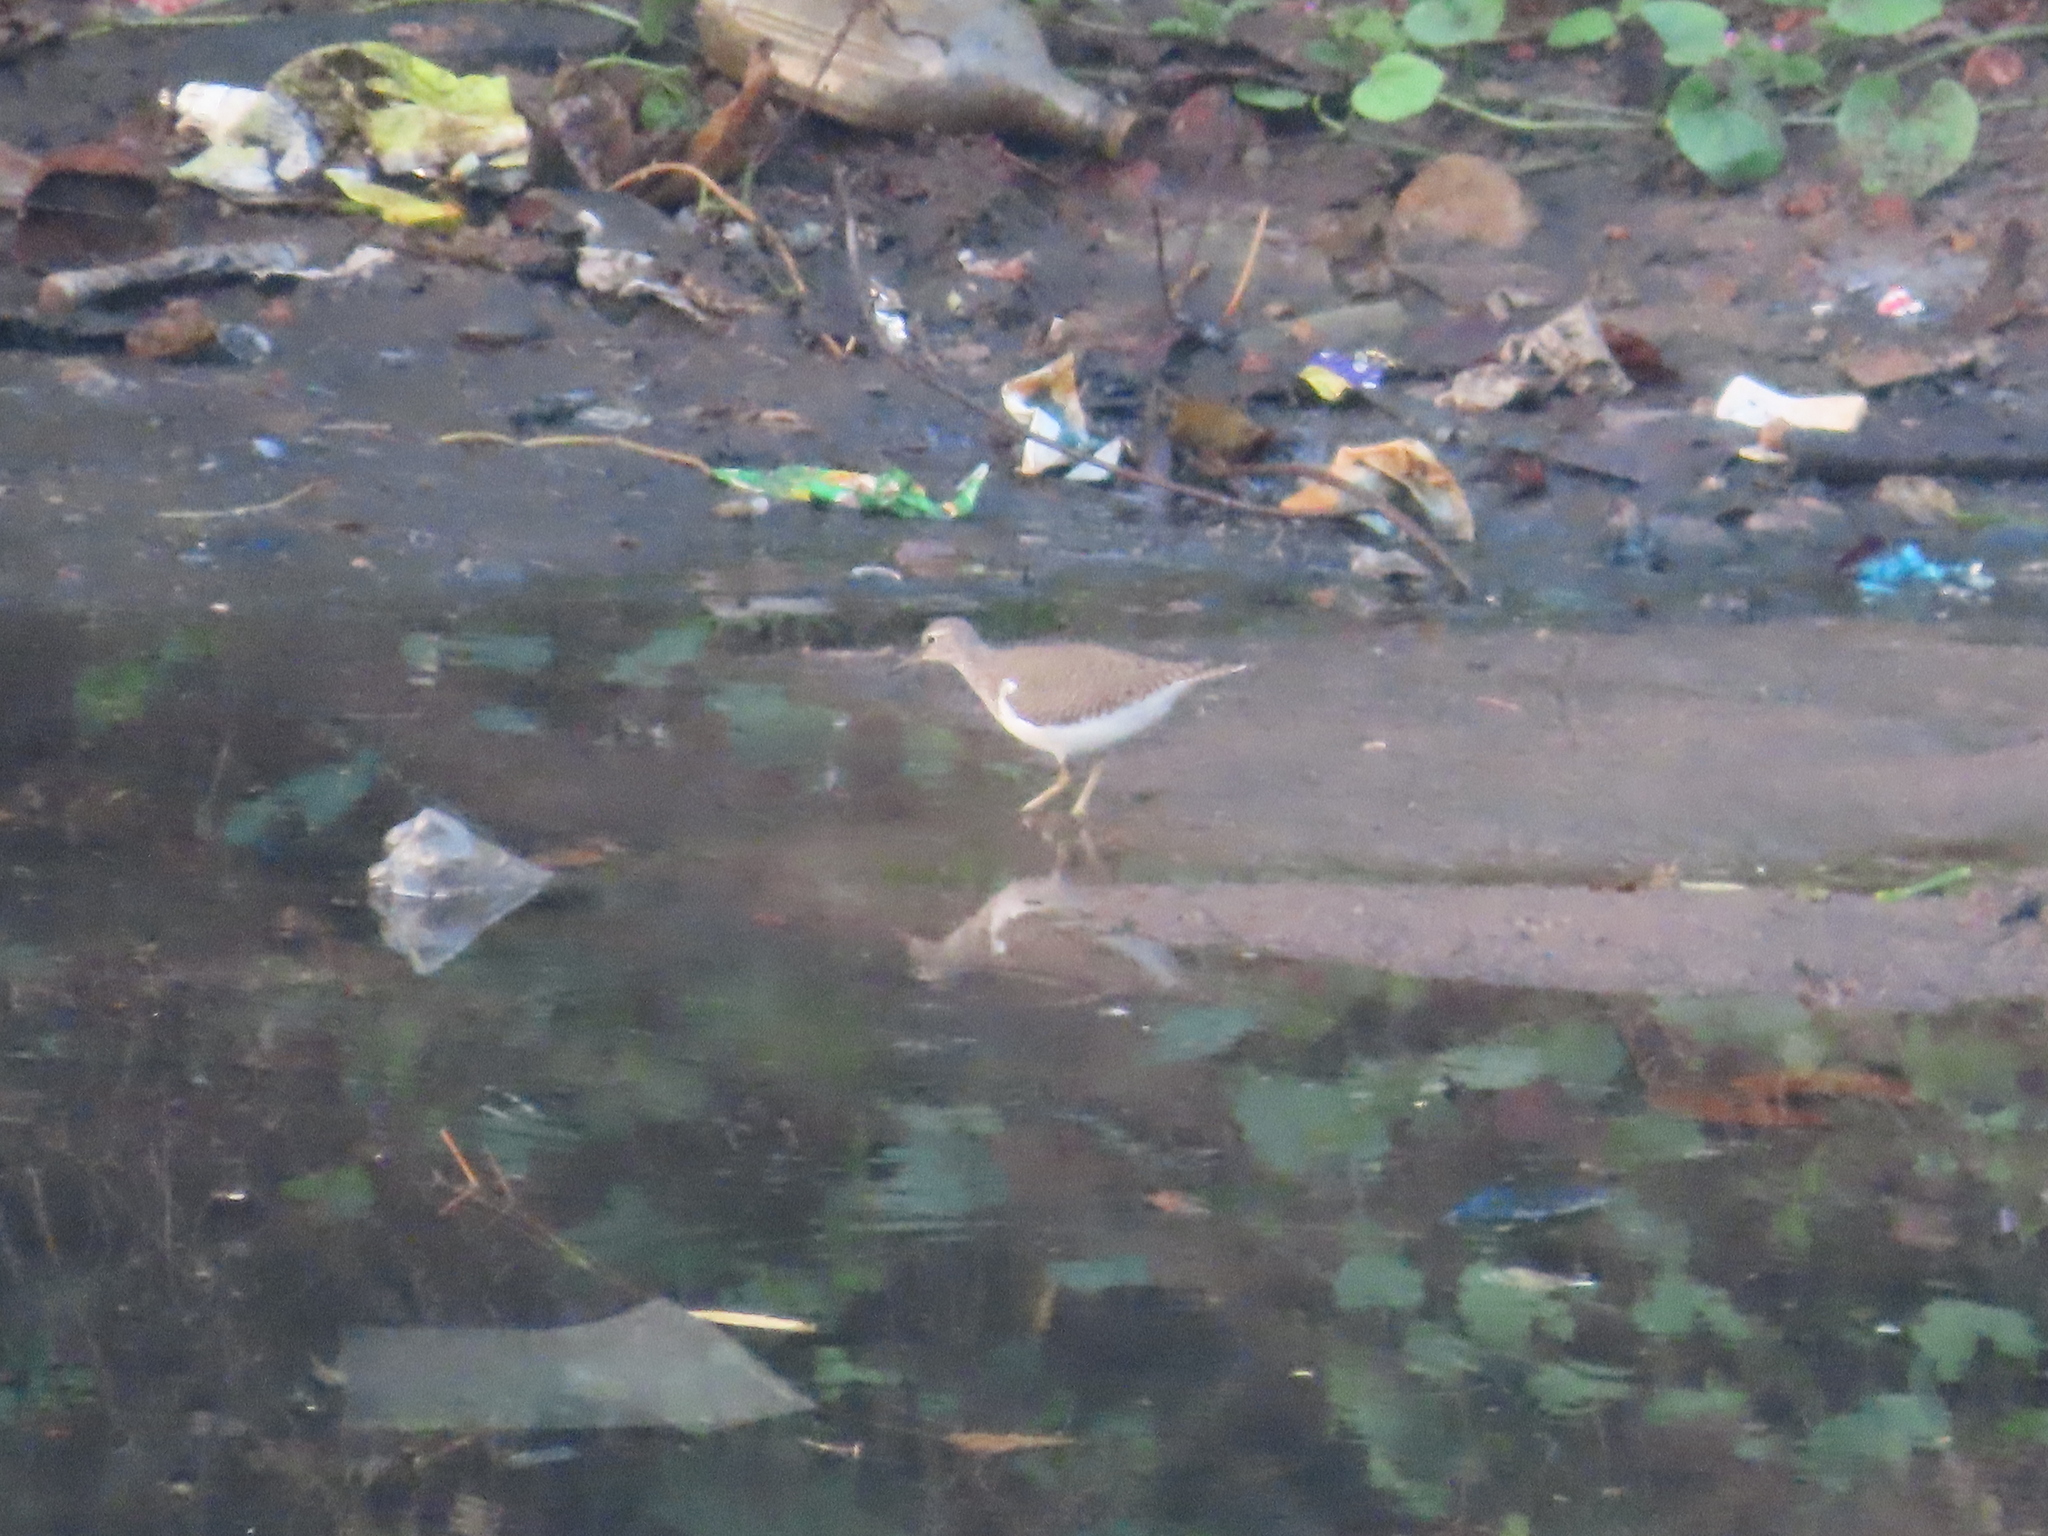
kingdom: Animalia
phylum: Chordata
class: Aves
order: Charadriiformes
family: Scolopacidae
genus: Actitis
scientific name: Actitis hypoleucos
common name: Common sandpiper
